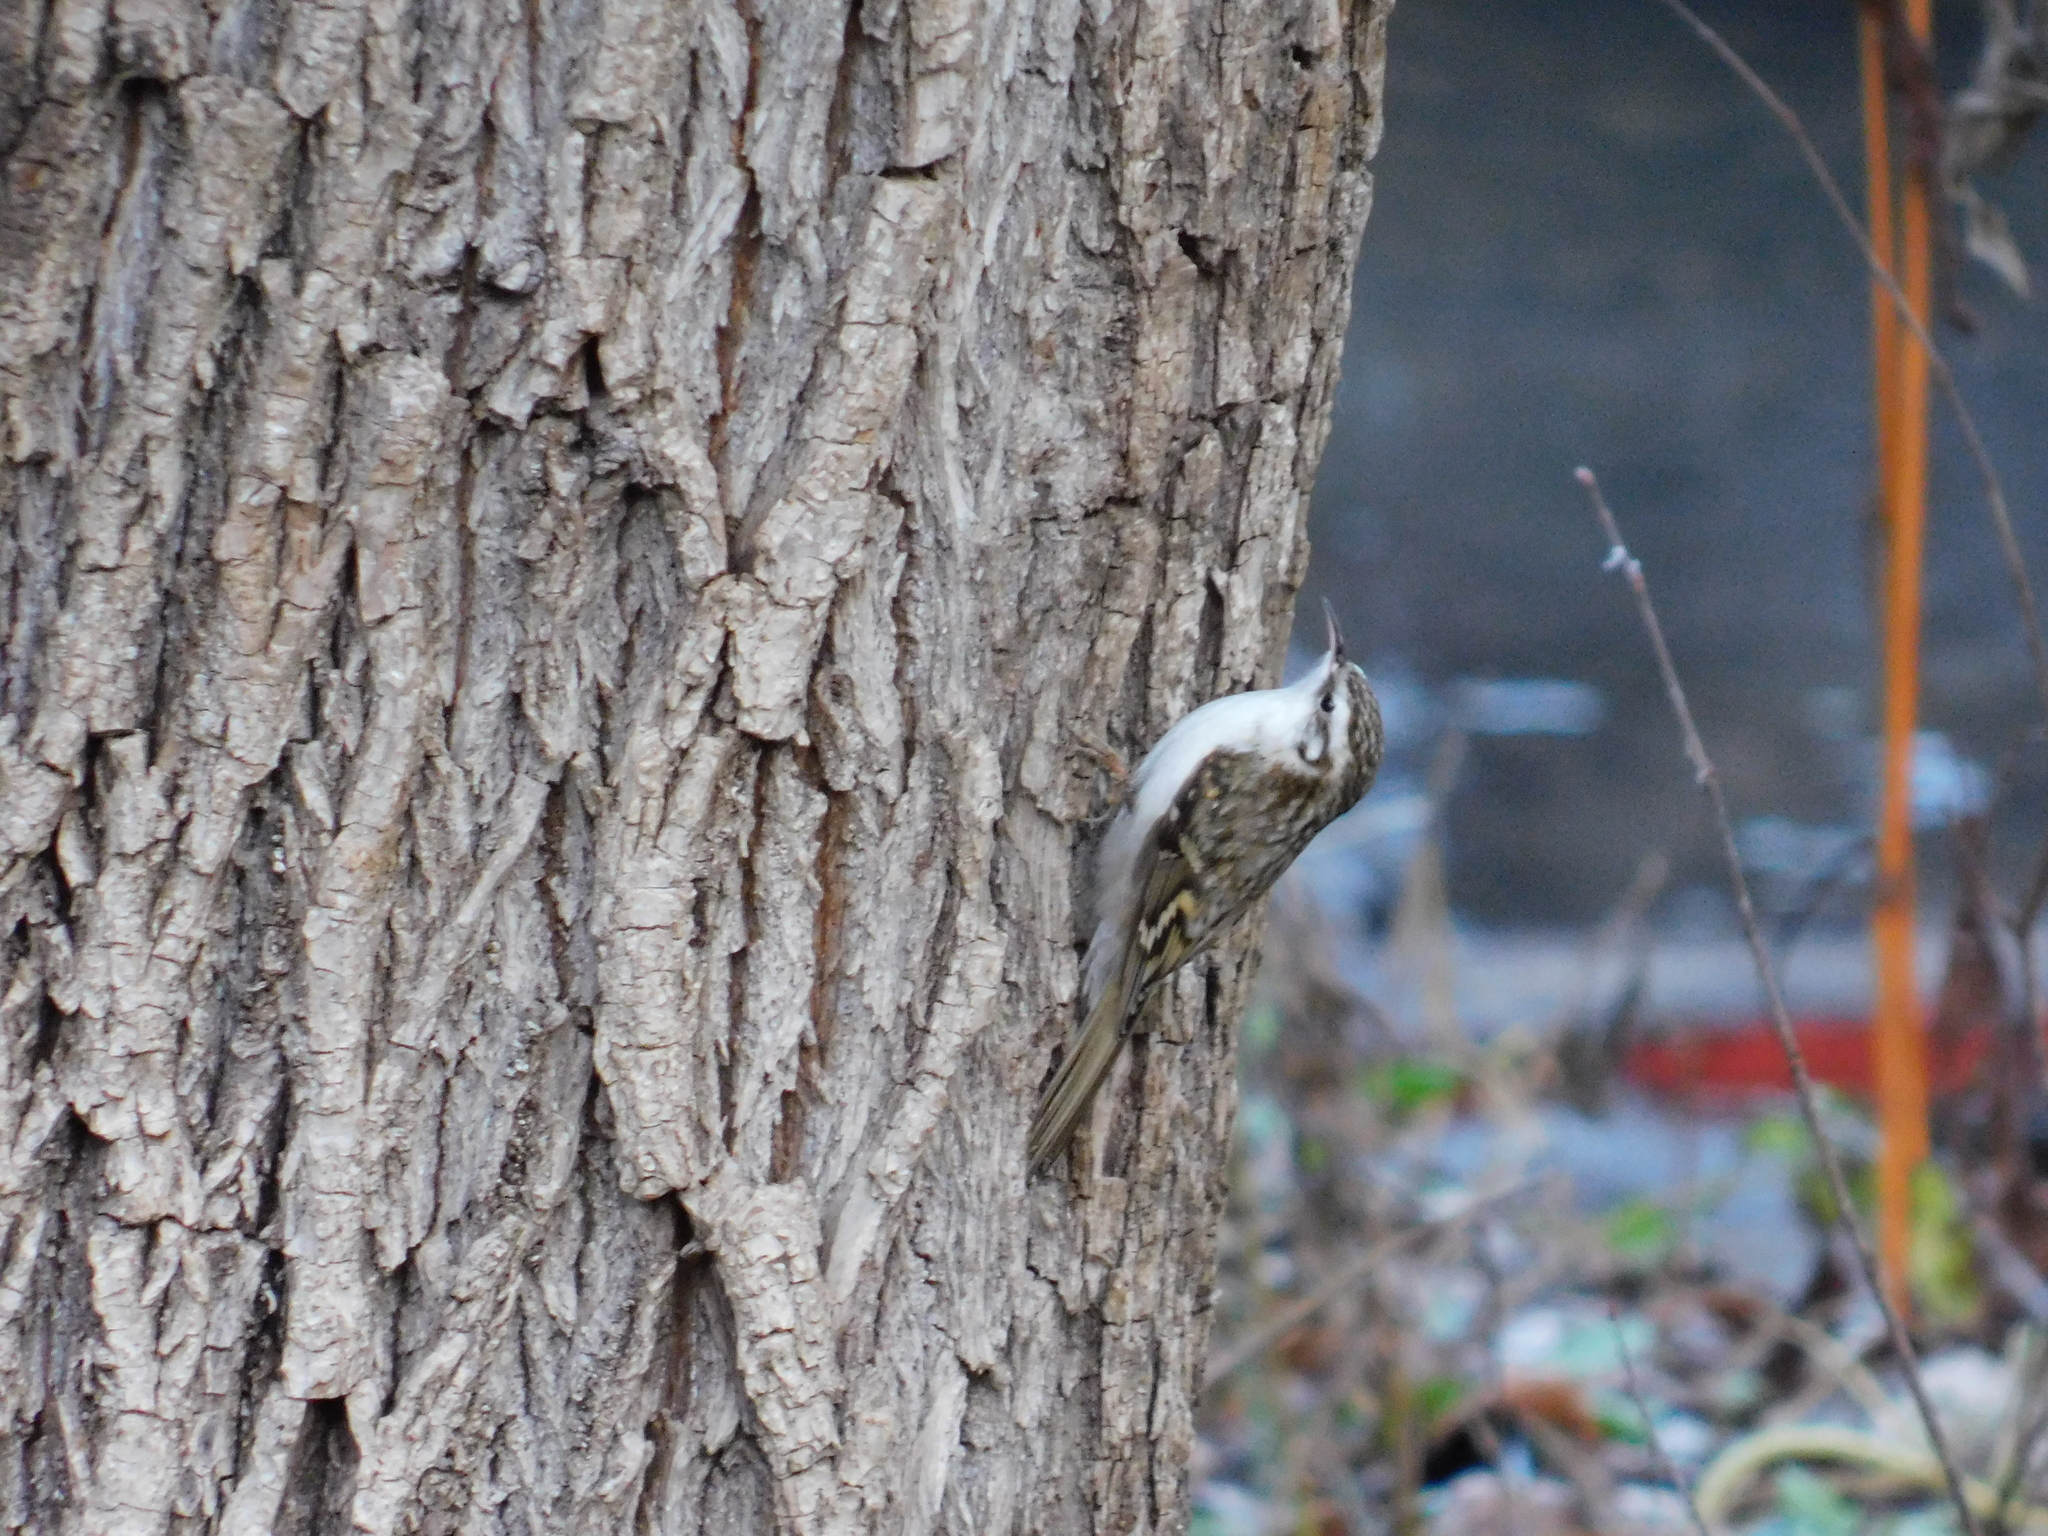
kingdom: Animalia
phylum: Chordata
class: Aves
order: Passeriformes
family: Certhiidae
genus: Certhia
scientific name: Certhia familiaris
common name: Eurasian treecreeper
